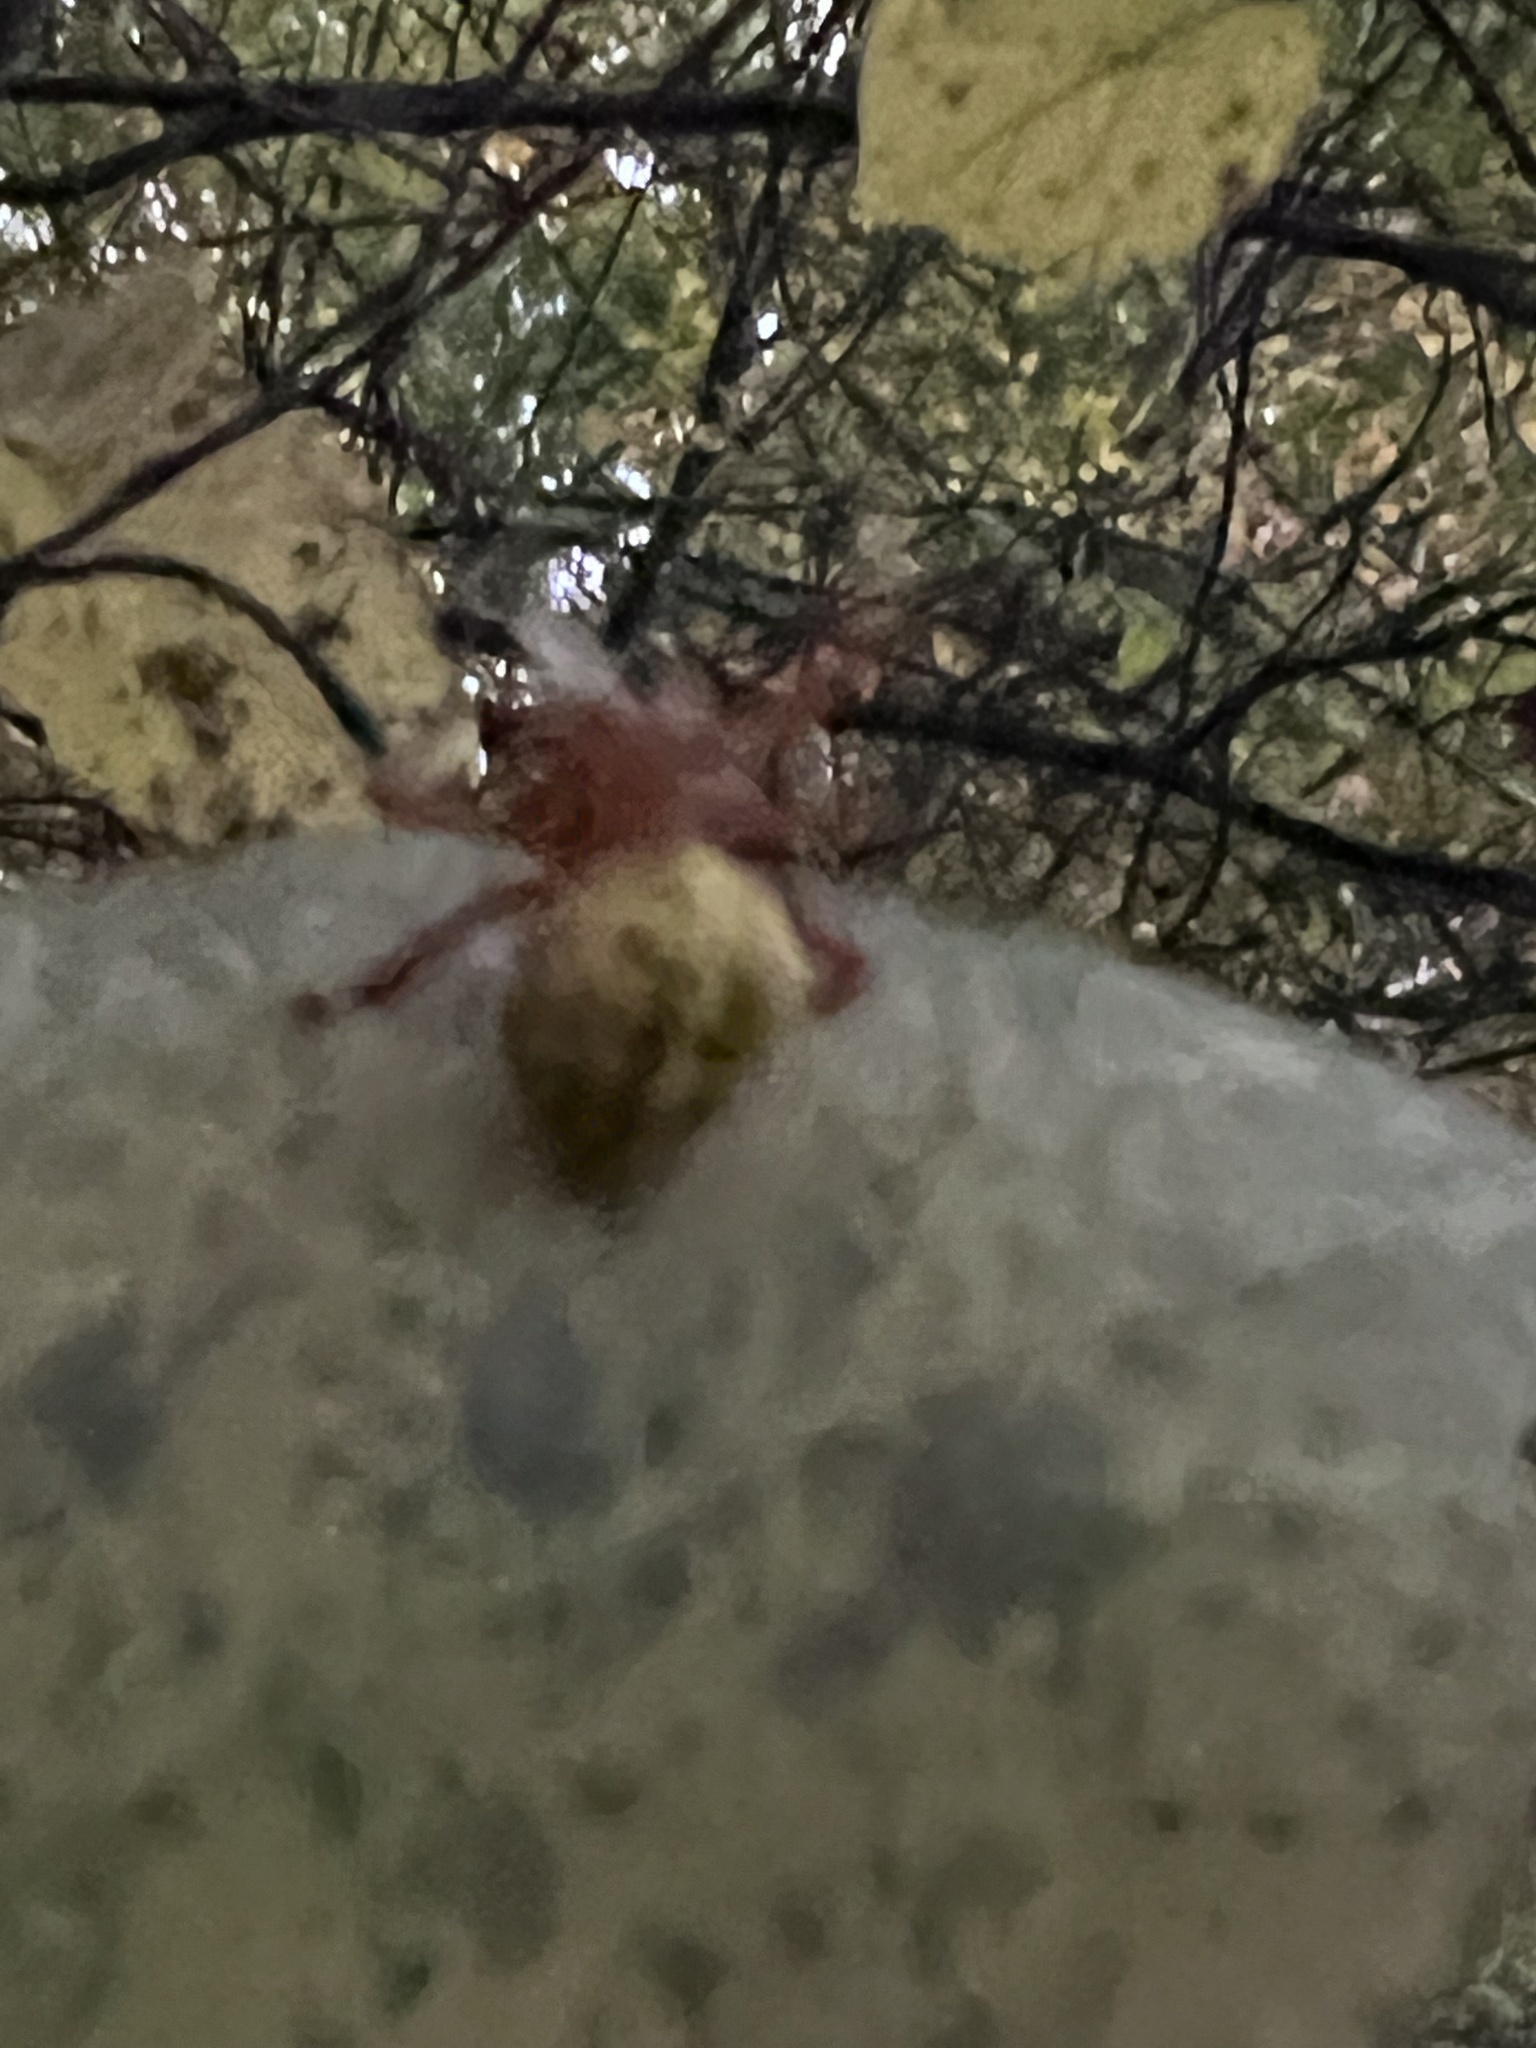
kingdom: Animalia
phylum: Arthropoda
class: Arachnida
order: Araneae
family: Araneidae
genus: Araneus
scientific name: Araneus marmoreus
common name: Marbled orbweaver
